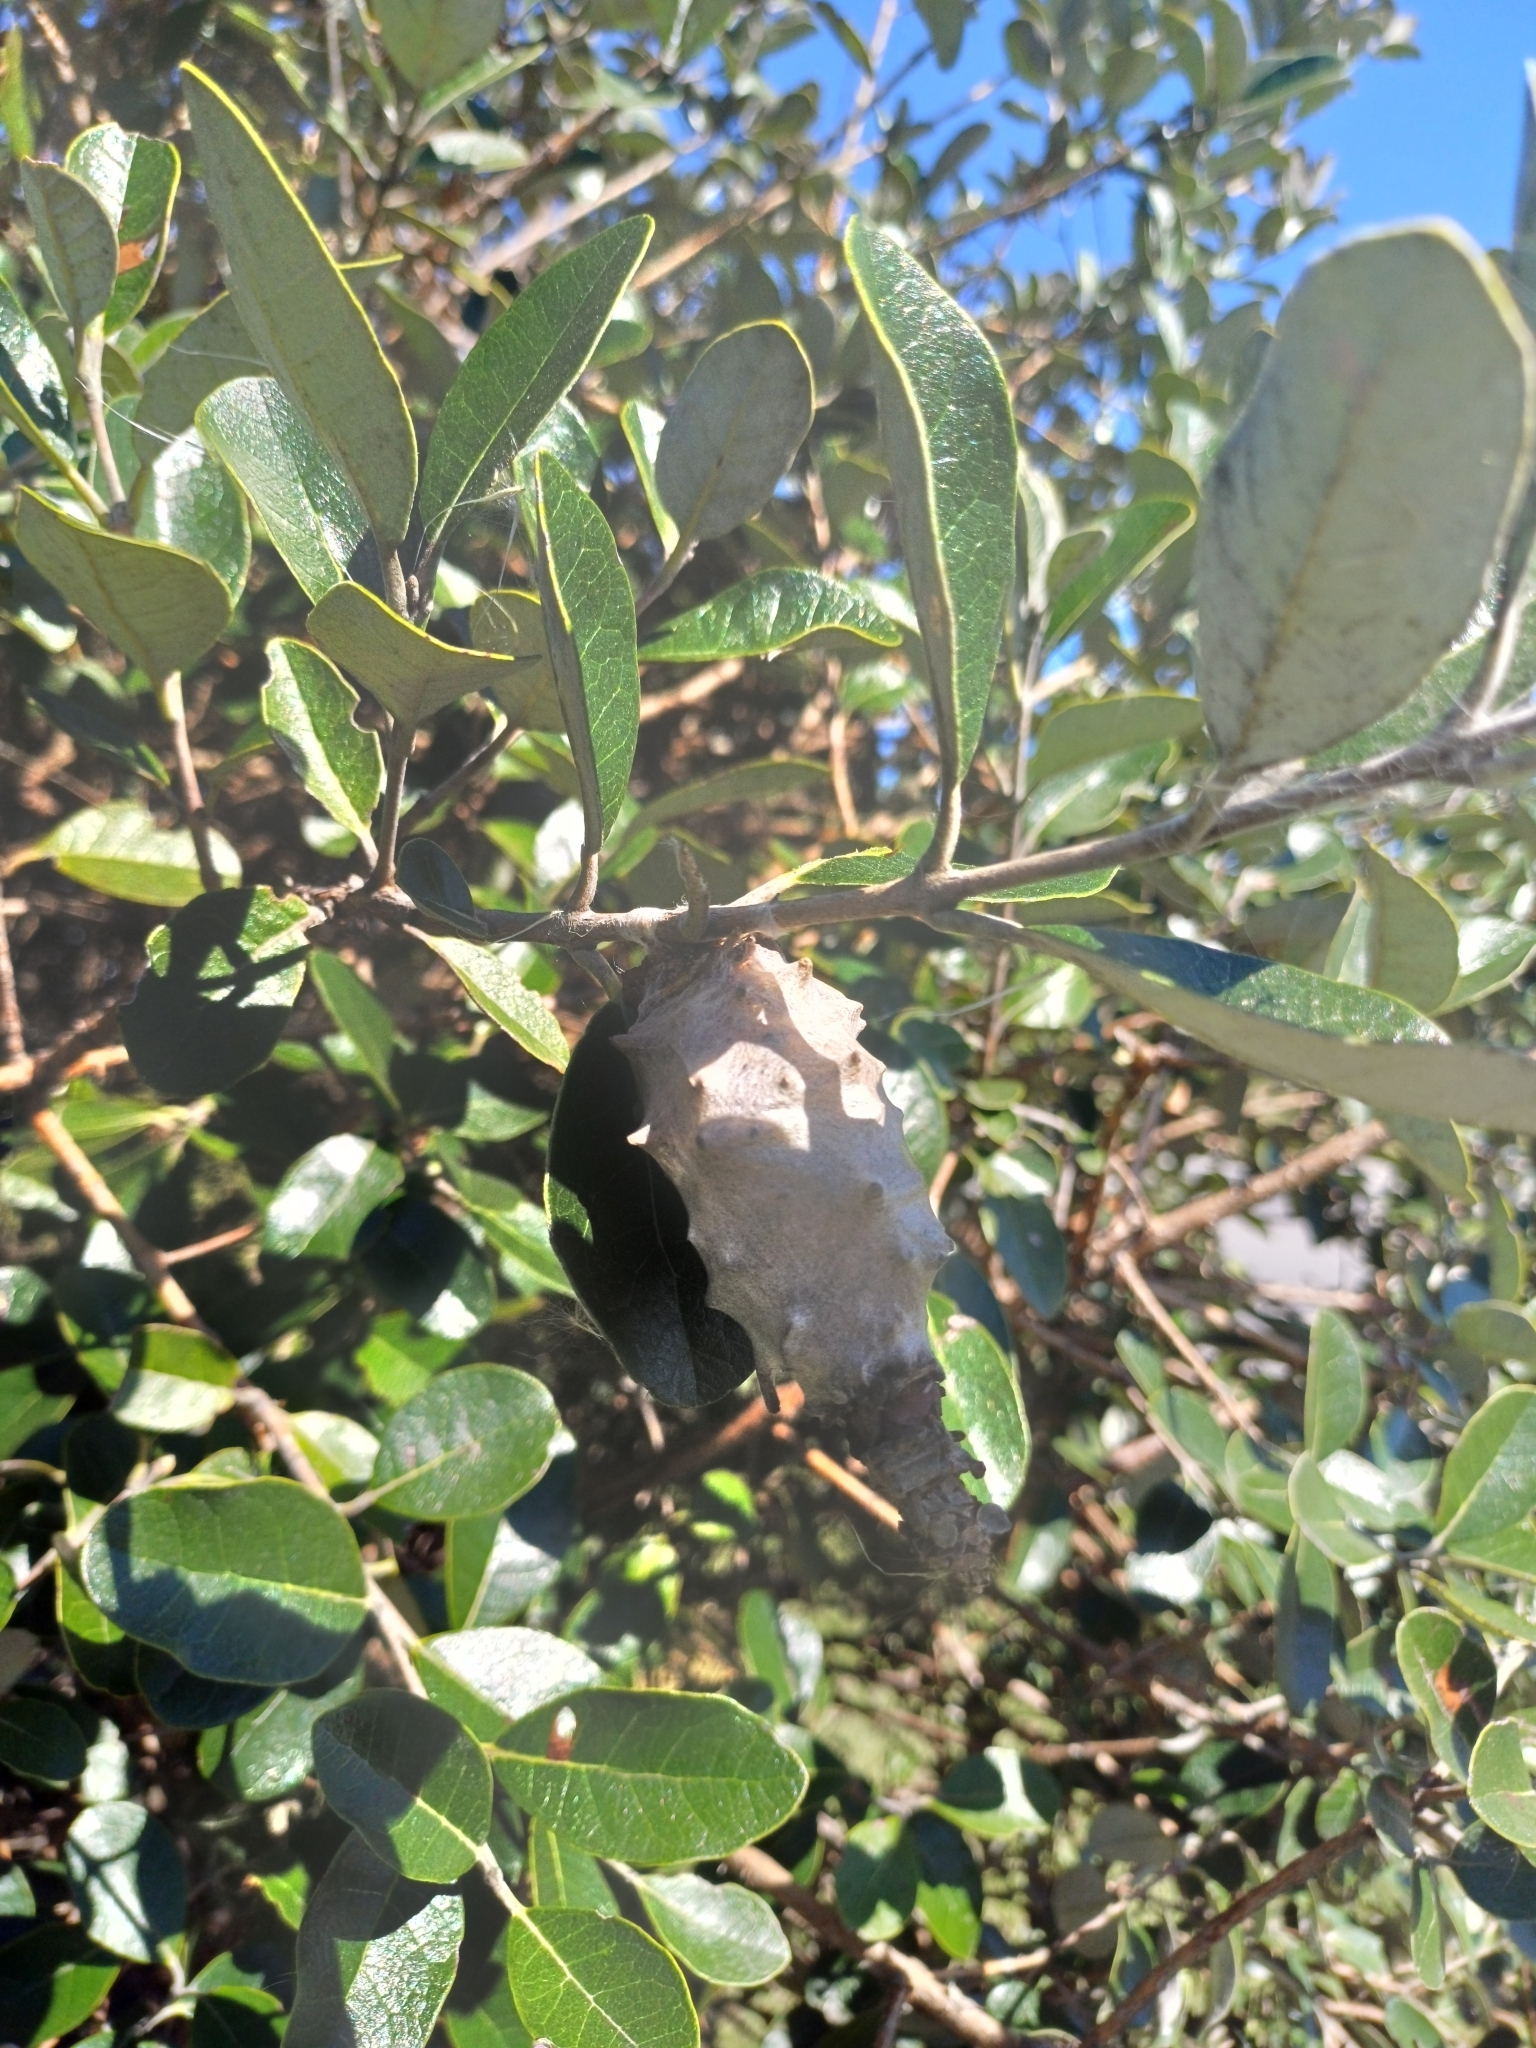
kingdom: Animalia
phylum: Arthropoda
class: Insecta
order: Lepidoptera
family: Psychidae
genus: Oiketicus
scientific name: Oiketicus
